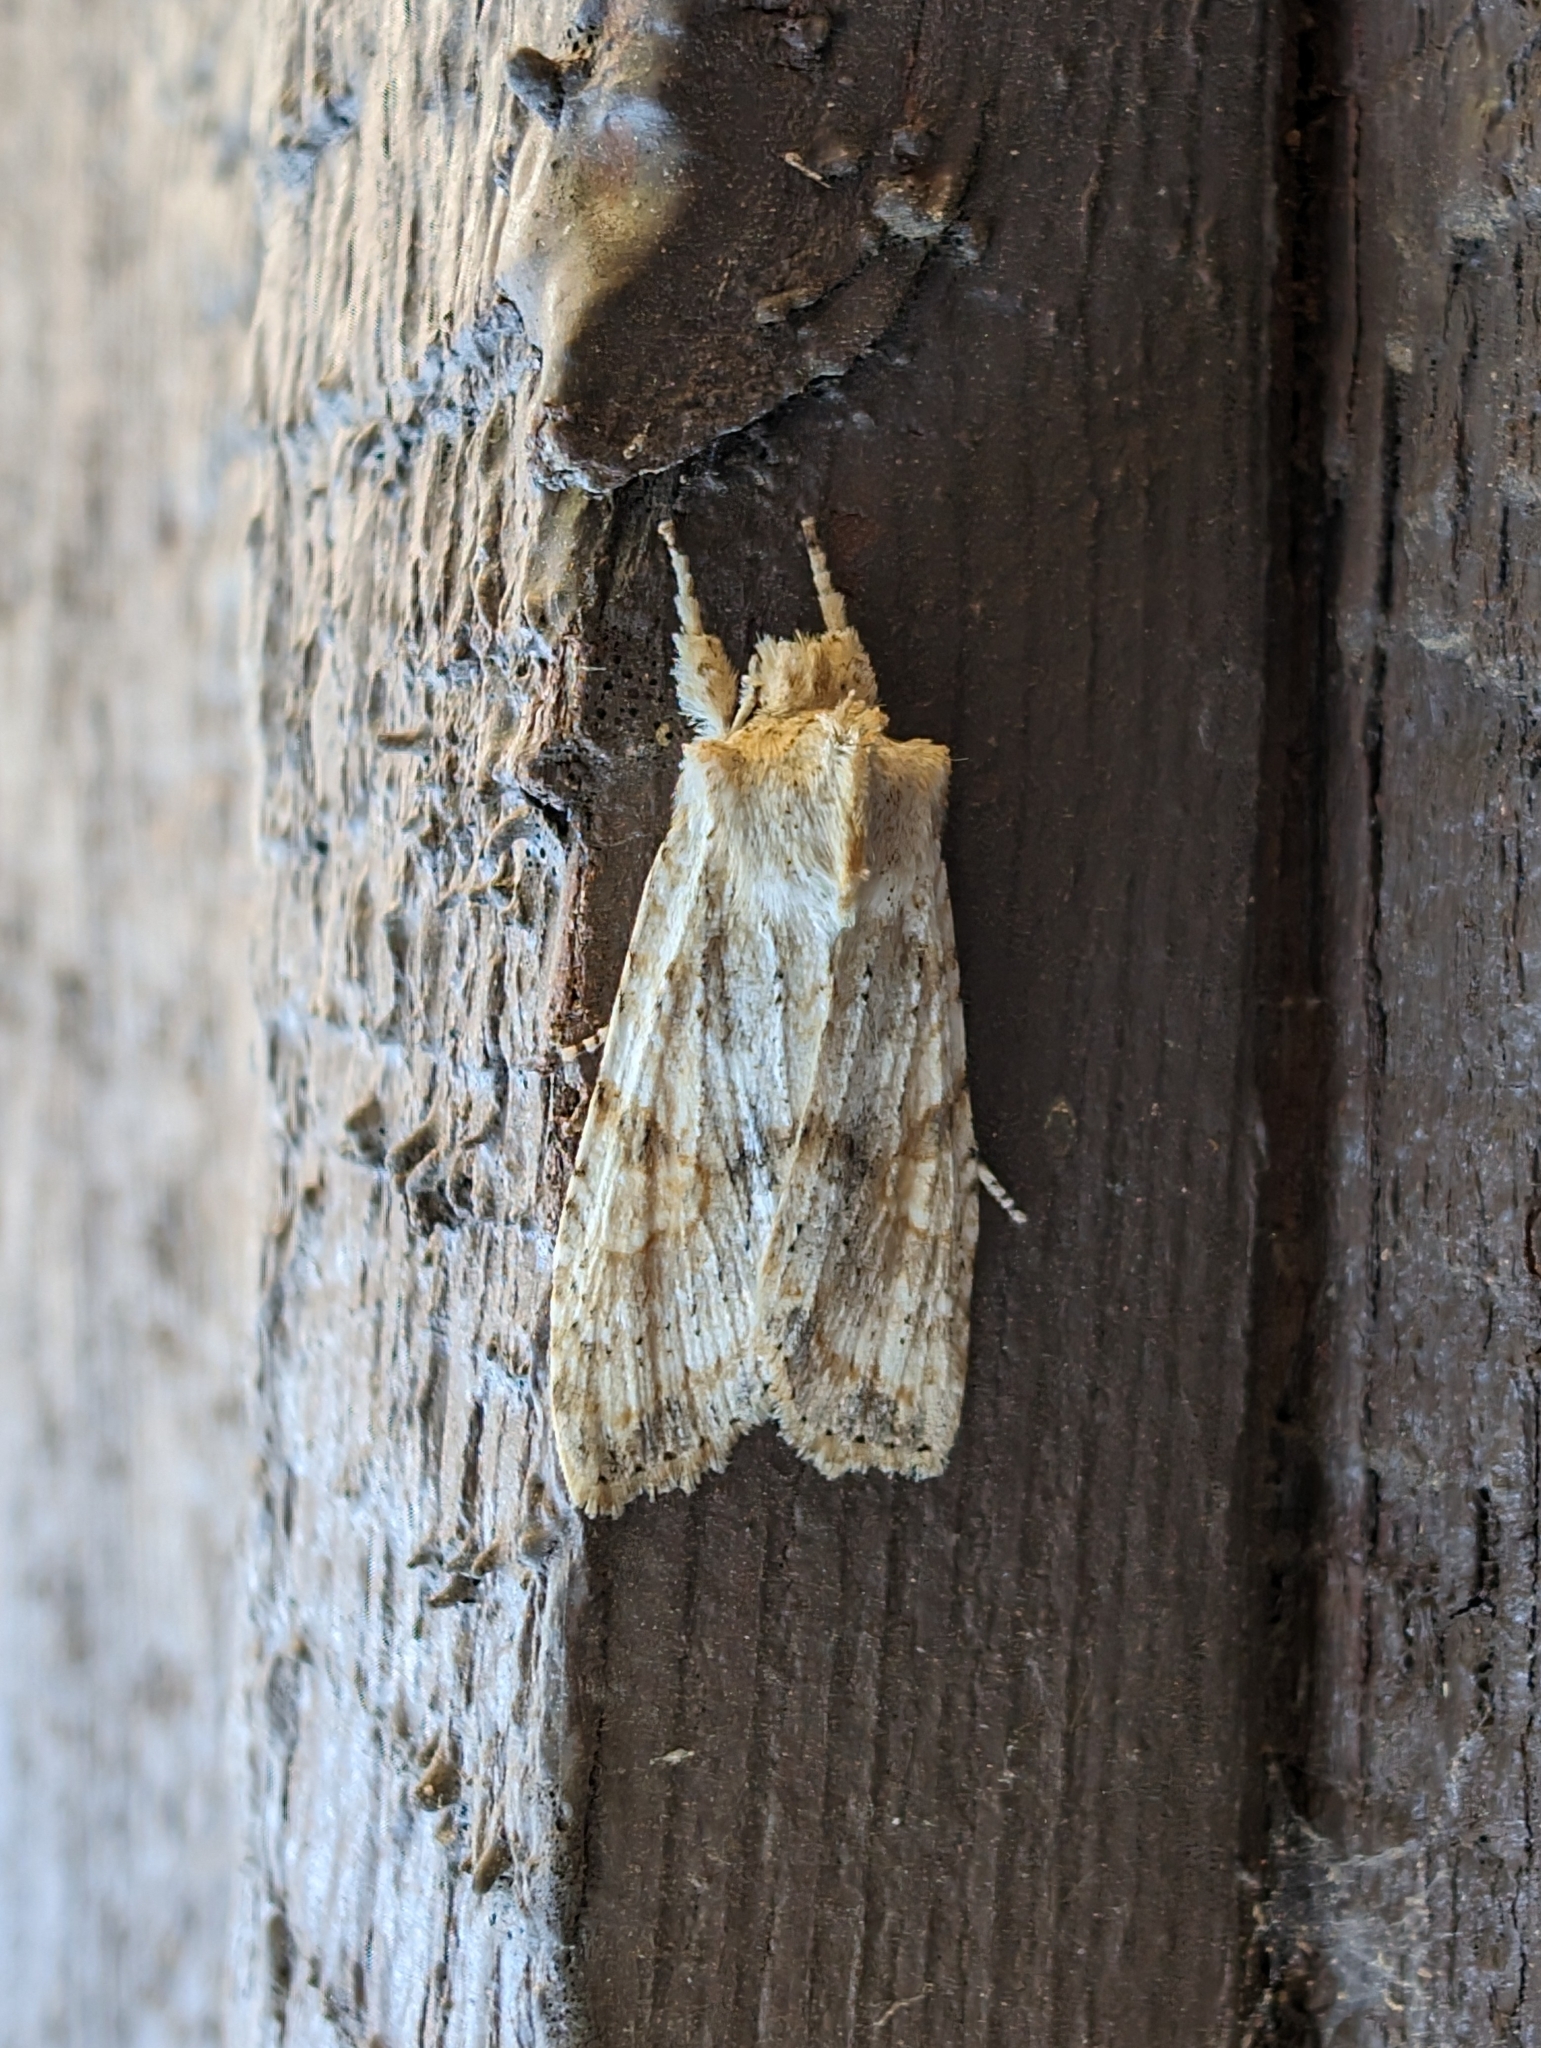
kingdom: Animalia
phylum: Arthropoda
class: Insecta
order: Lepidoptera
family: Noctuidae
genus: Lithophane
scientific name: Lithophane bethunei
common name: Bethune's pinion moth
